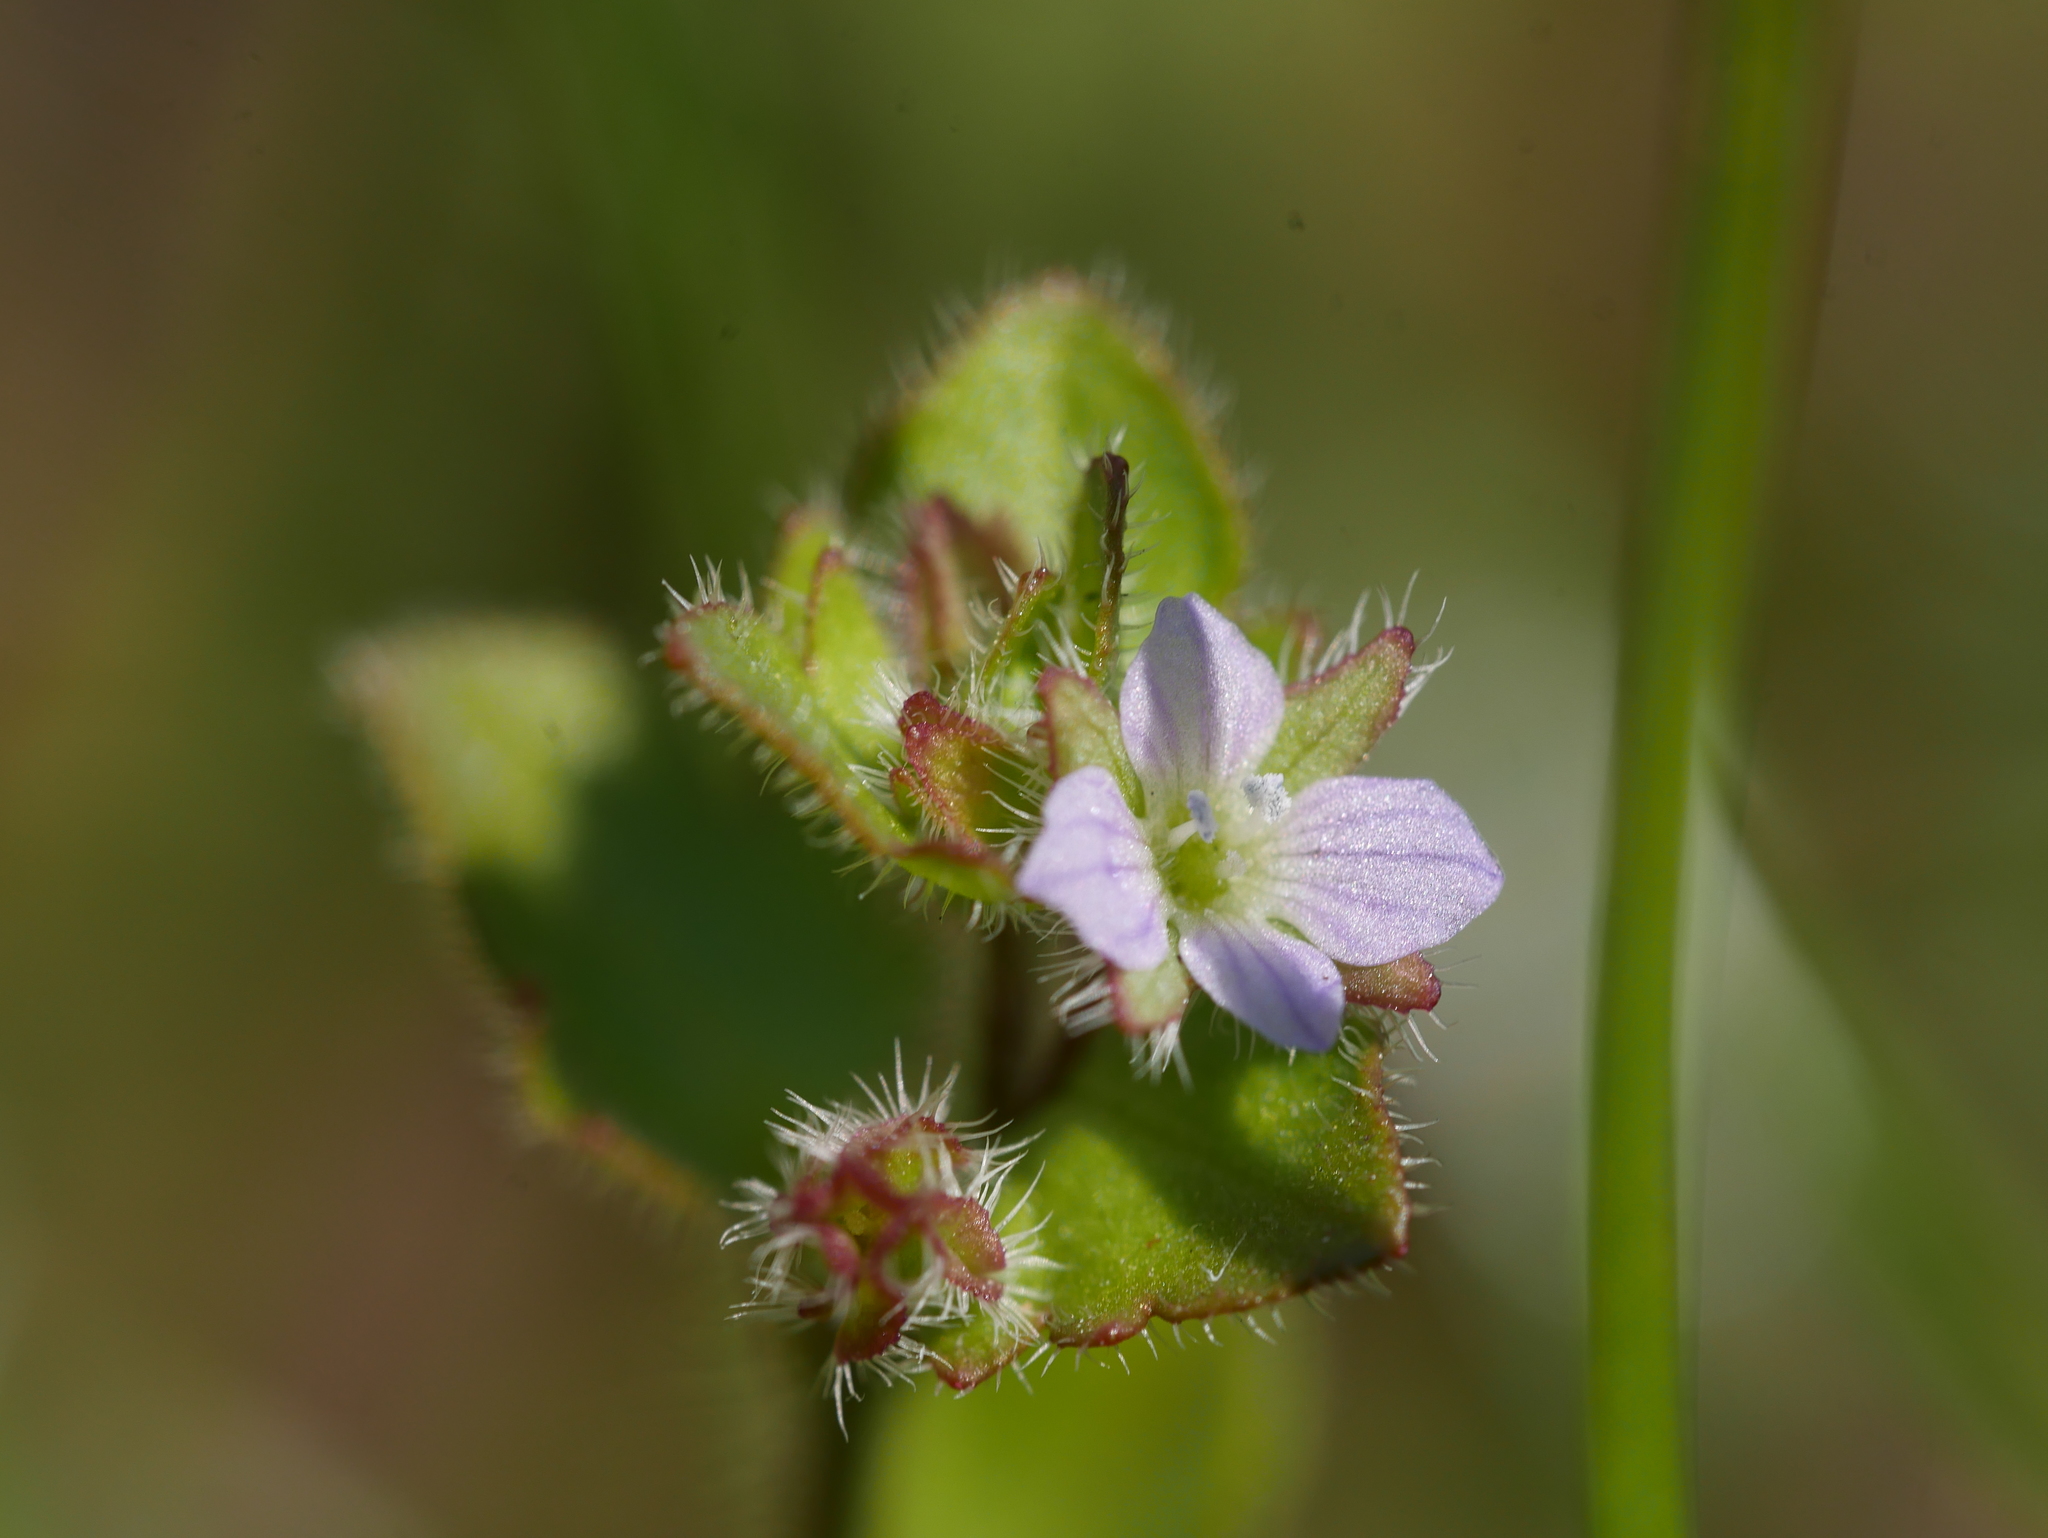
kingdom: Plantae
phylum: Tracheophyta
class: Magnoliopsida
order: Lamiales
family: Plantaginaceae
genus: Veronica
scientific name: Veronica sublobata
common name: False ivy-leaved speedwell
